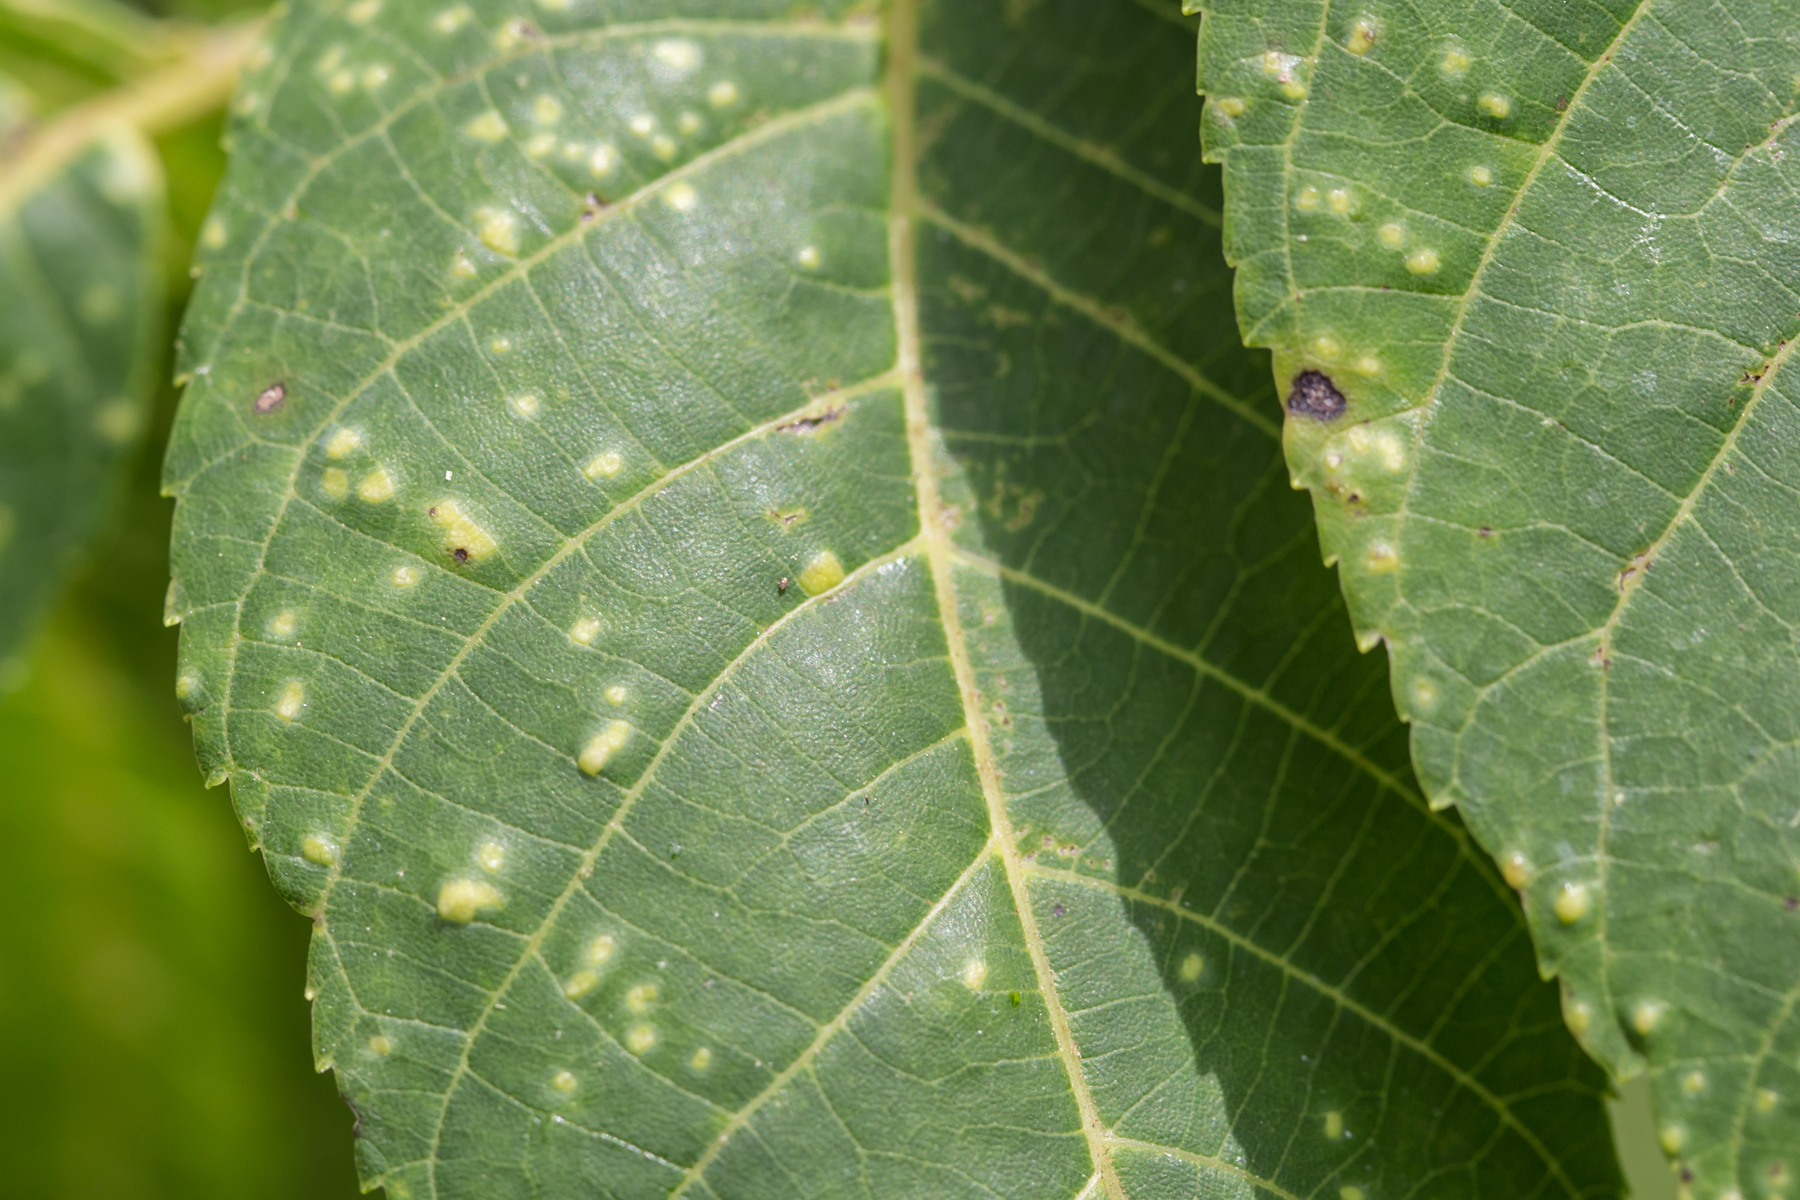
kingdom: Fungi
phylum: Basidiomycota
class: Exobasidiomycetes
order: Microstromatales
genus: Pseudomicrostroma
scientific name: Pseudomicrostroma juglandis
